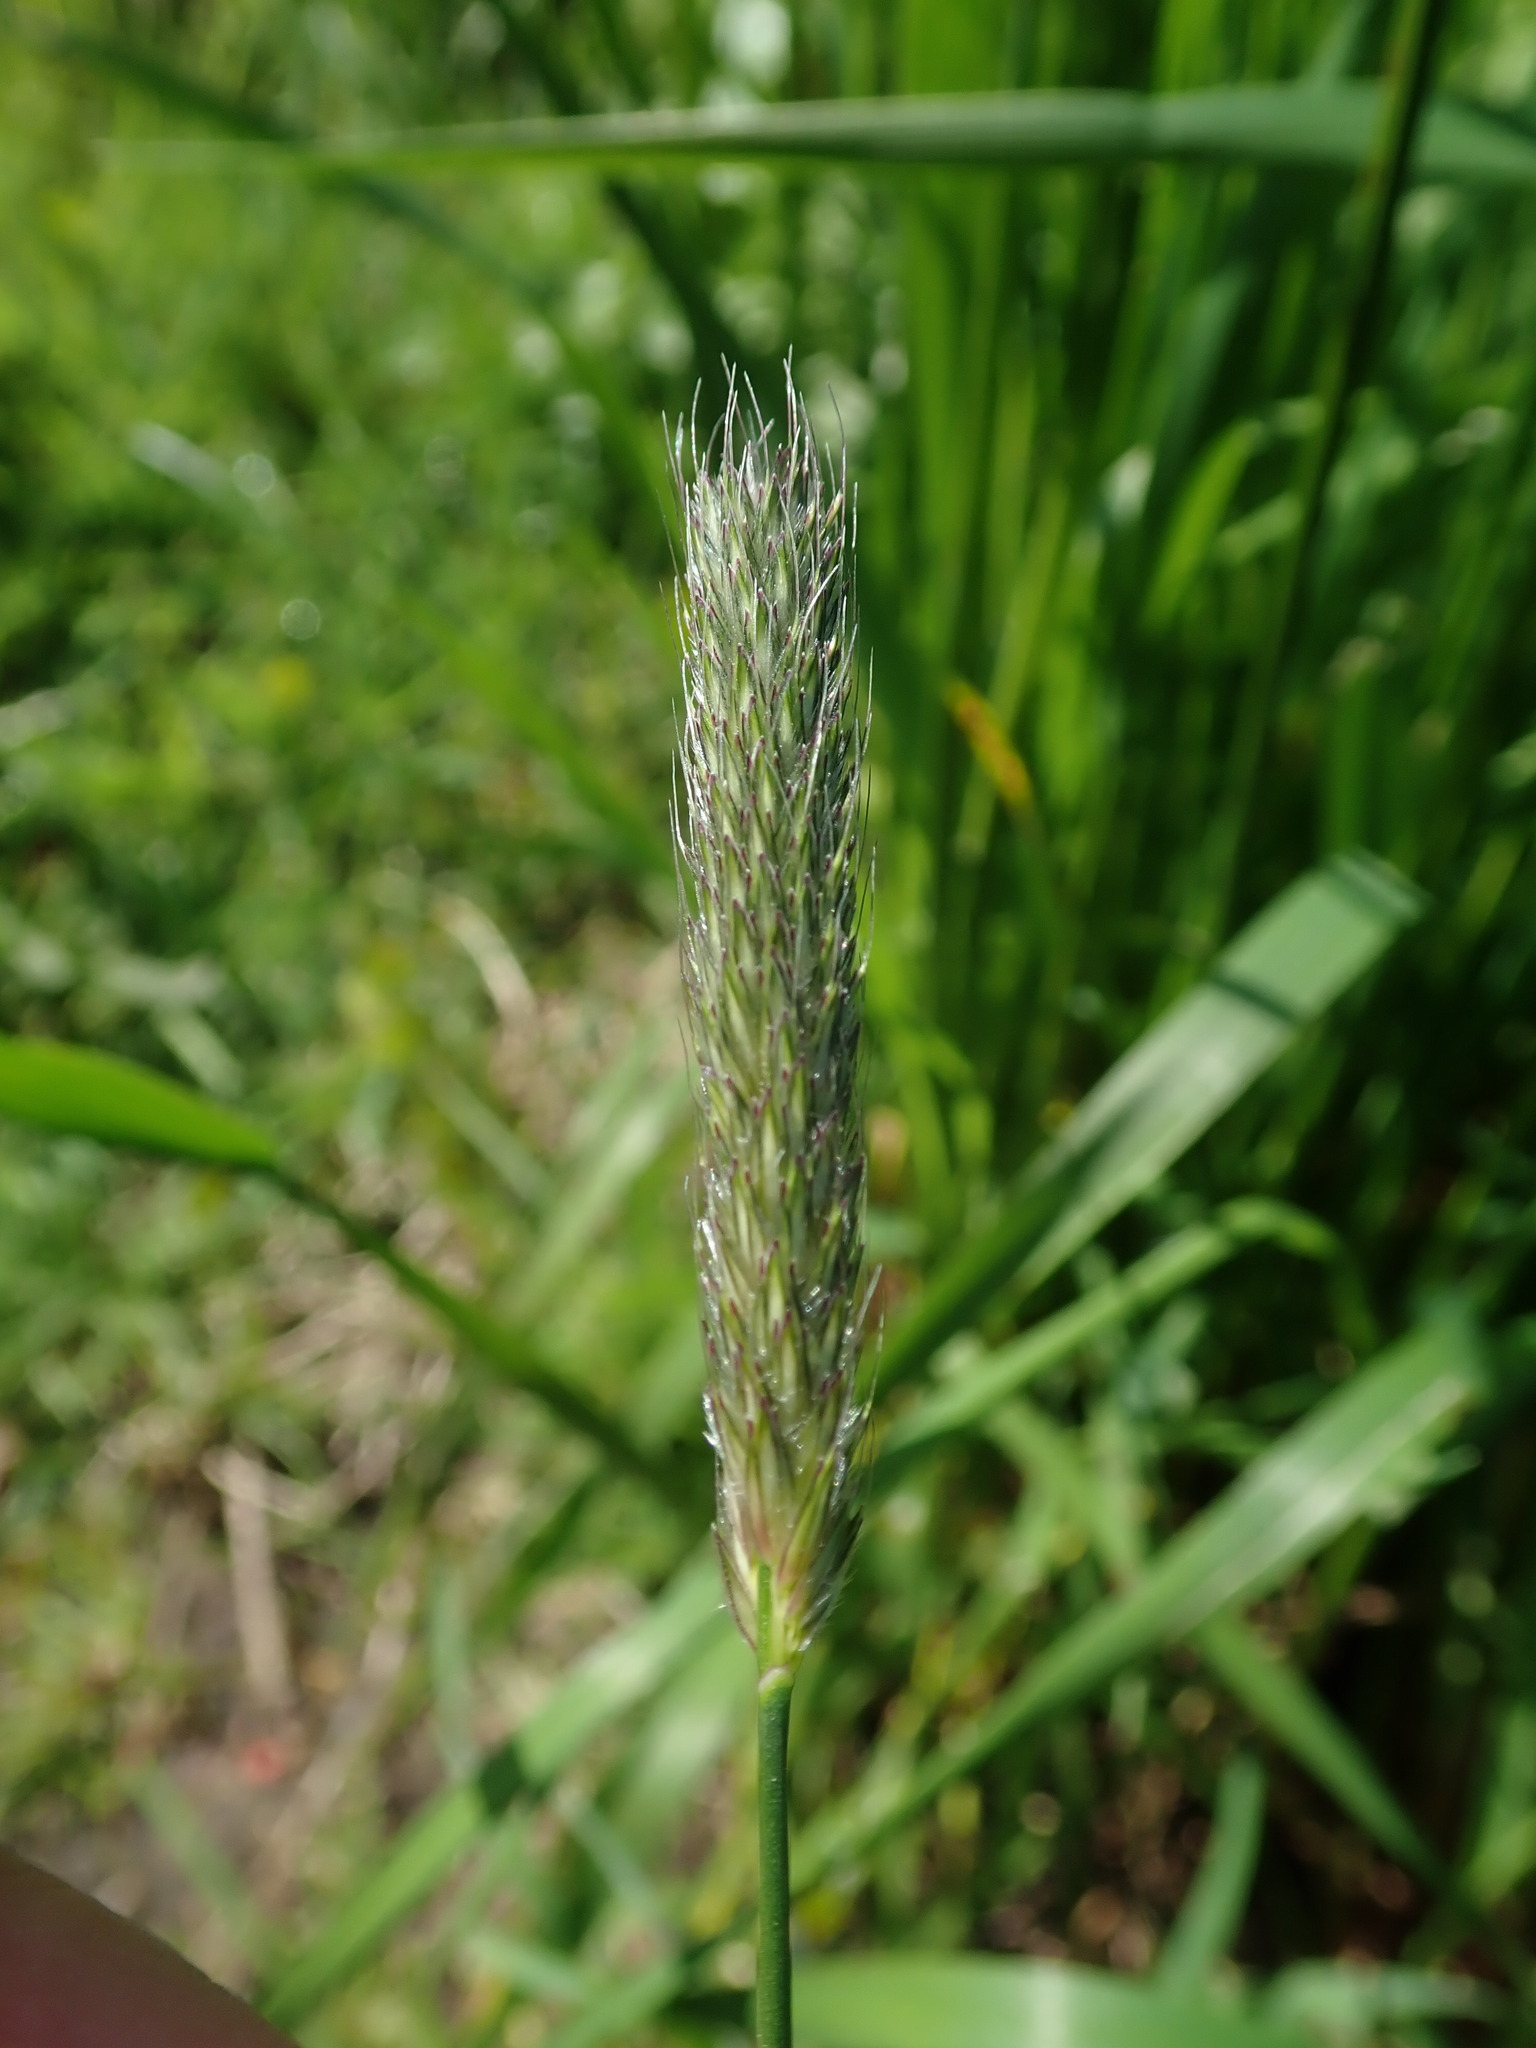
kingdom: Plantae
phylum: Tracheophyta
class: Liliopsida
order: Poales
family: Poaceae
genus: Alopecurus
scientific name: Alopecurus pratensis
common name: Meadow foxtail
